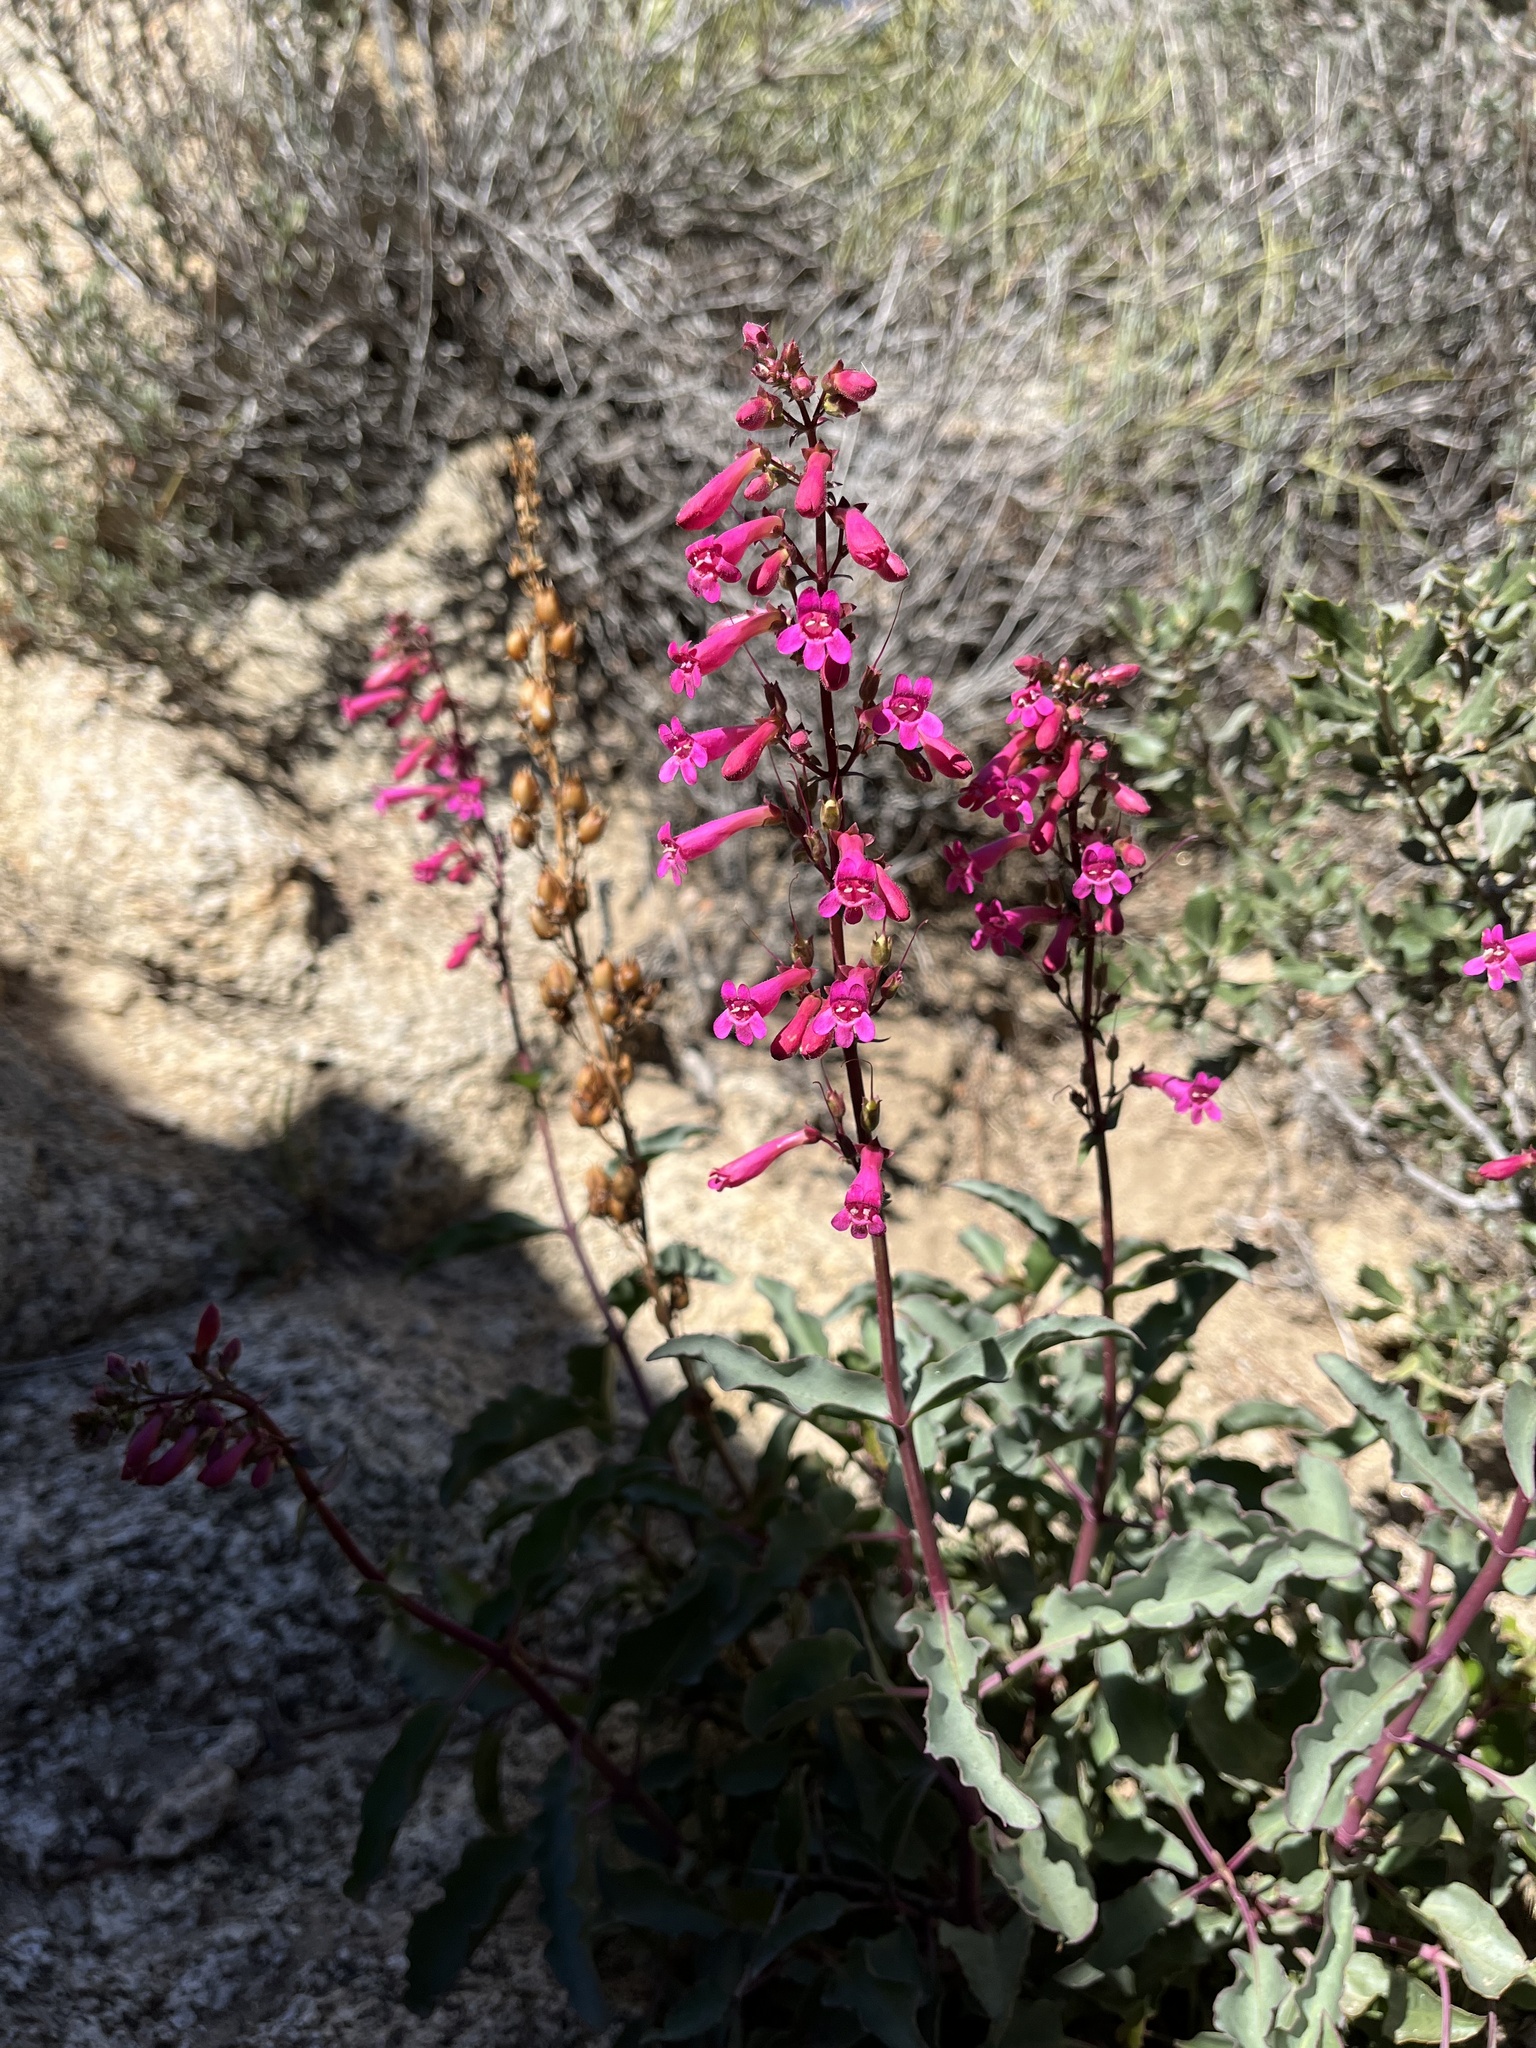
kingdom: Plantae
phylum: Tracheophyta
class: Magnoliopsida
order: Lamiales
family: Plantaginaceae
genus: Penstemon
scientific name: Penstemon clevelandii
